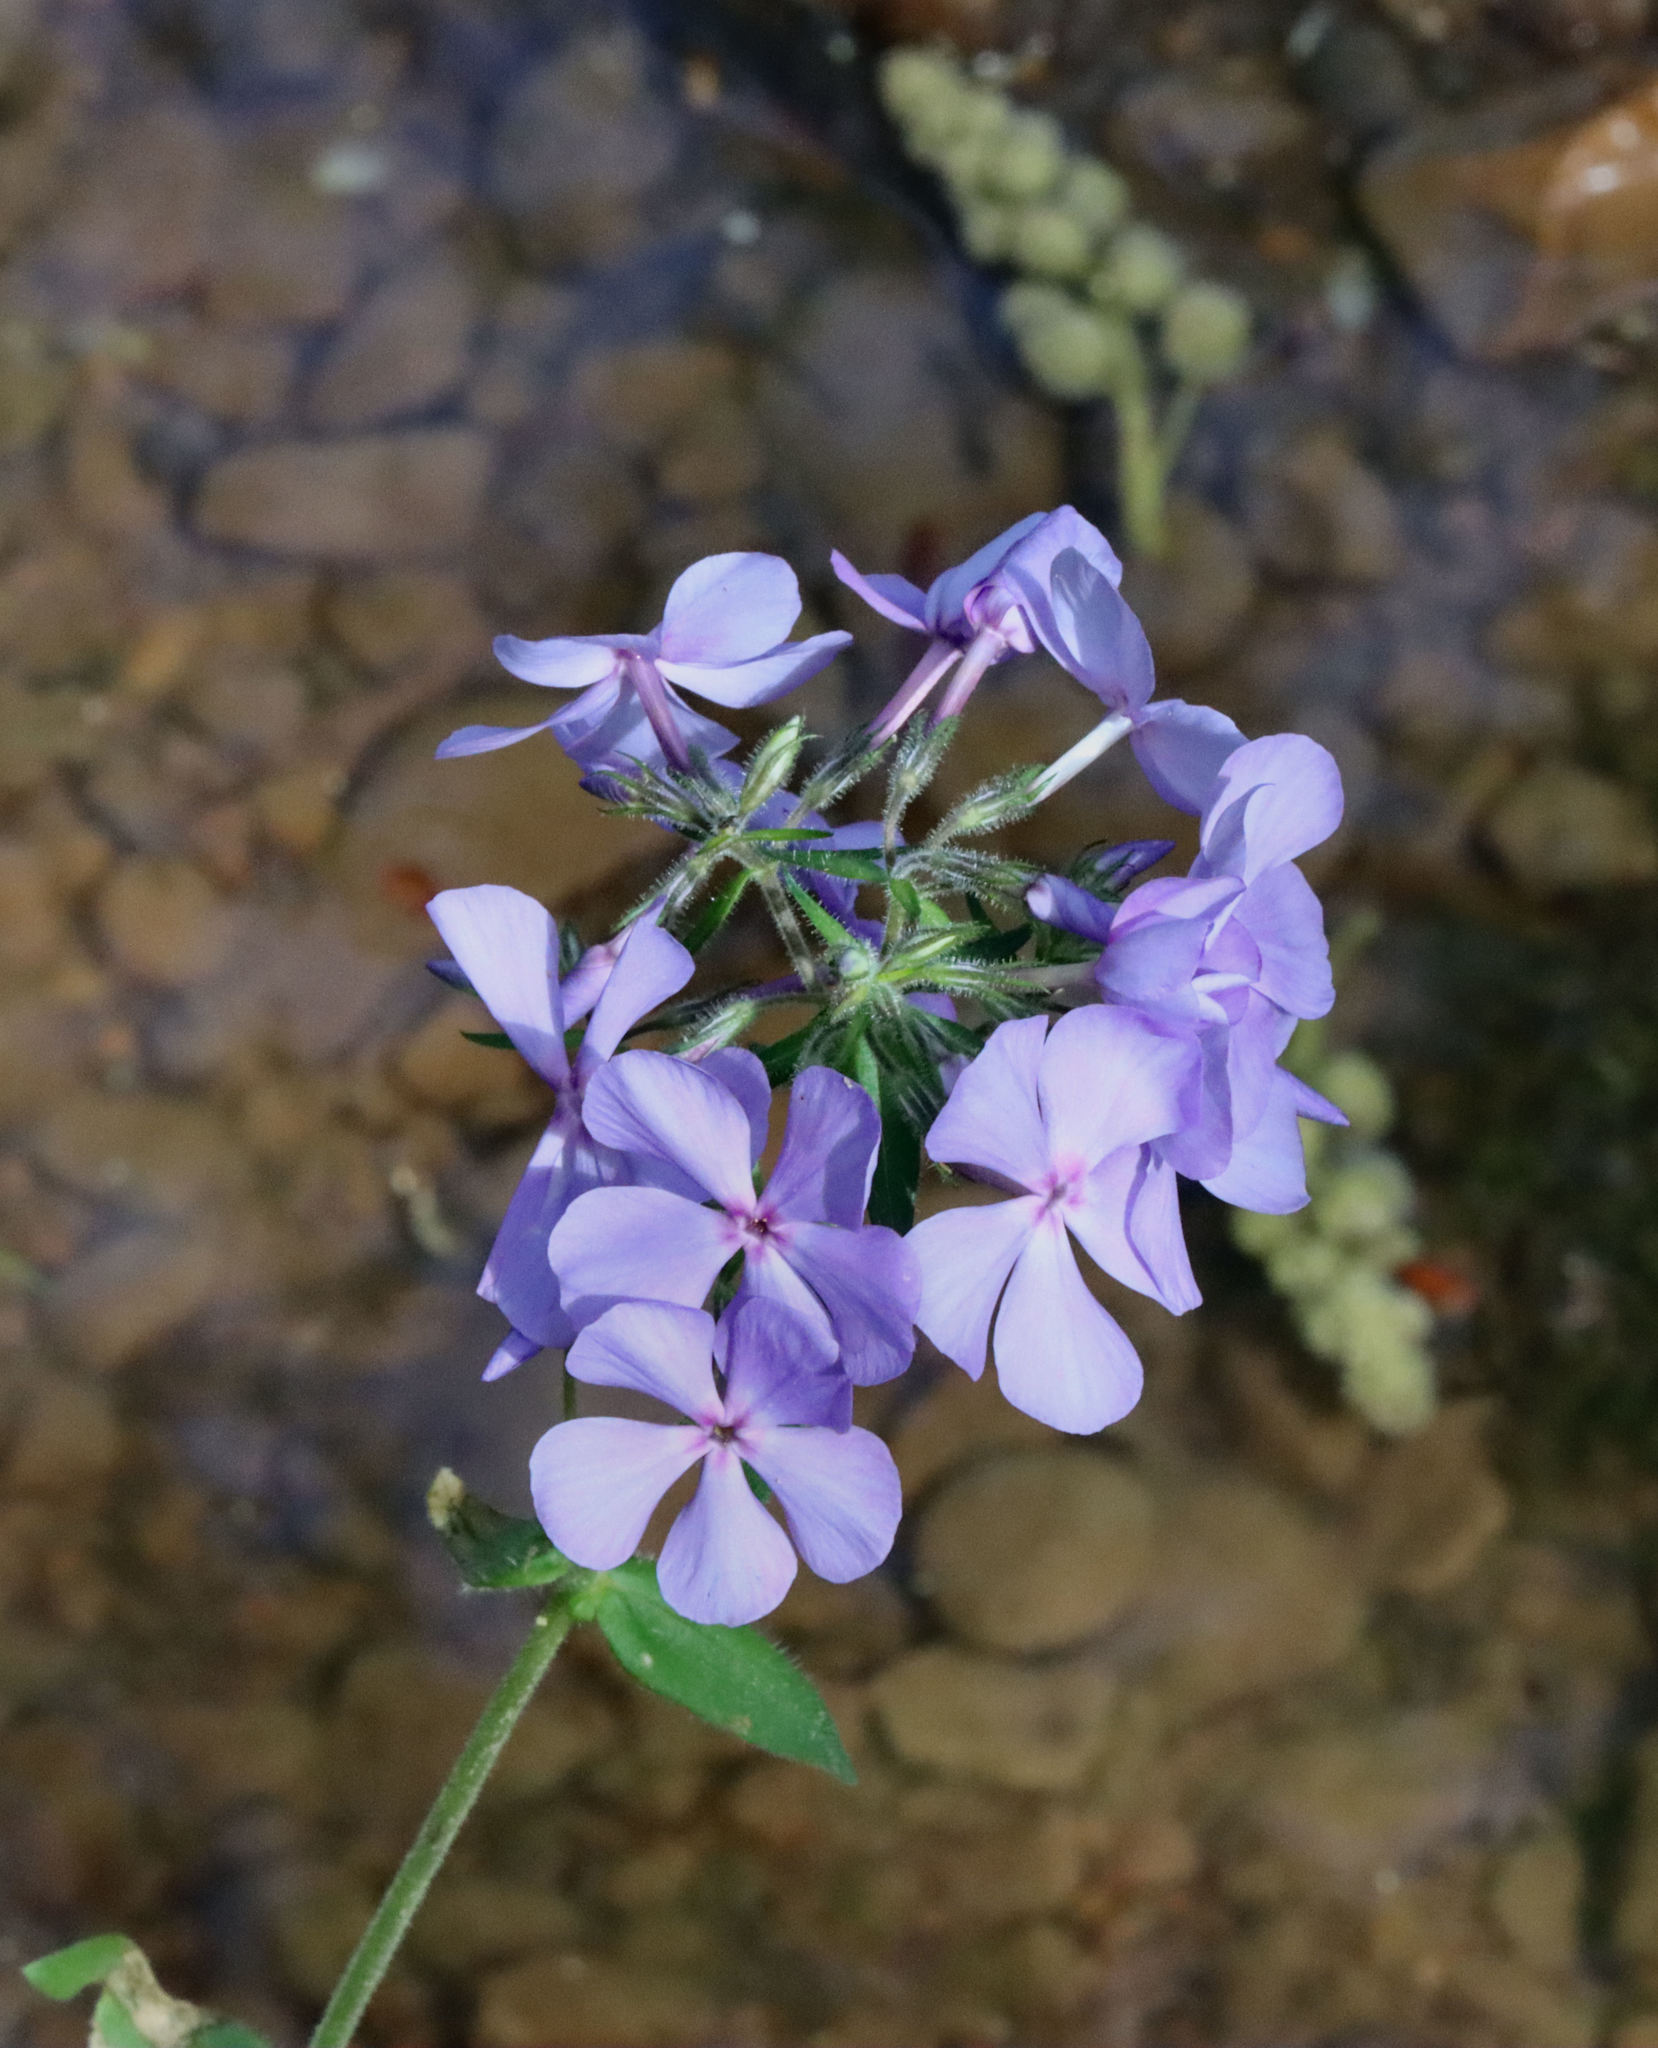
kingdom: Plantae
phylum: Tracheophyta
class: Magnoliopsida
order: Ericales
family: Polemoniaceae
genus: Phlox
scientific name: Phlox divaricata
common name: Blue phlox
